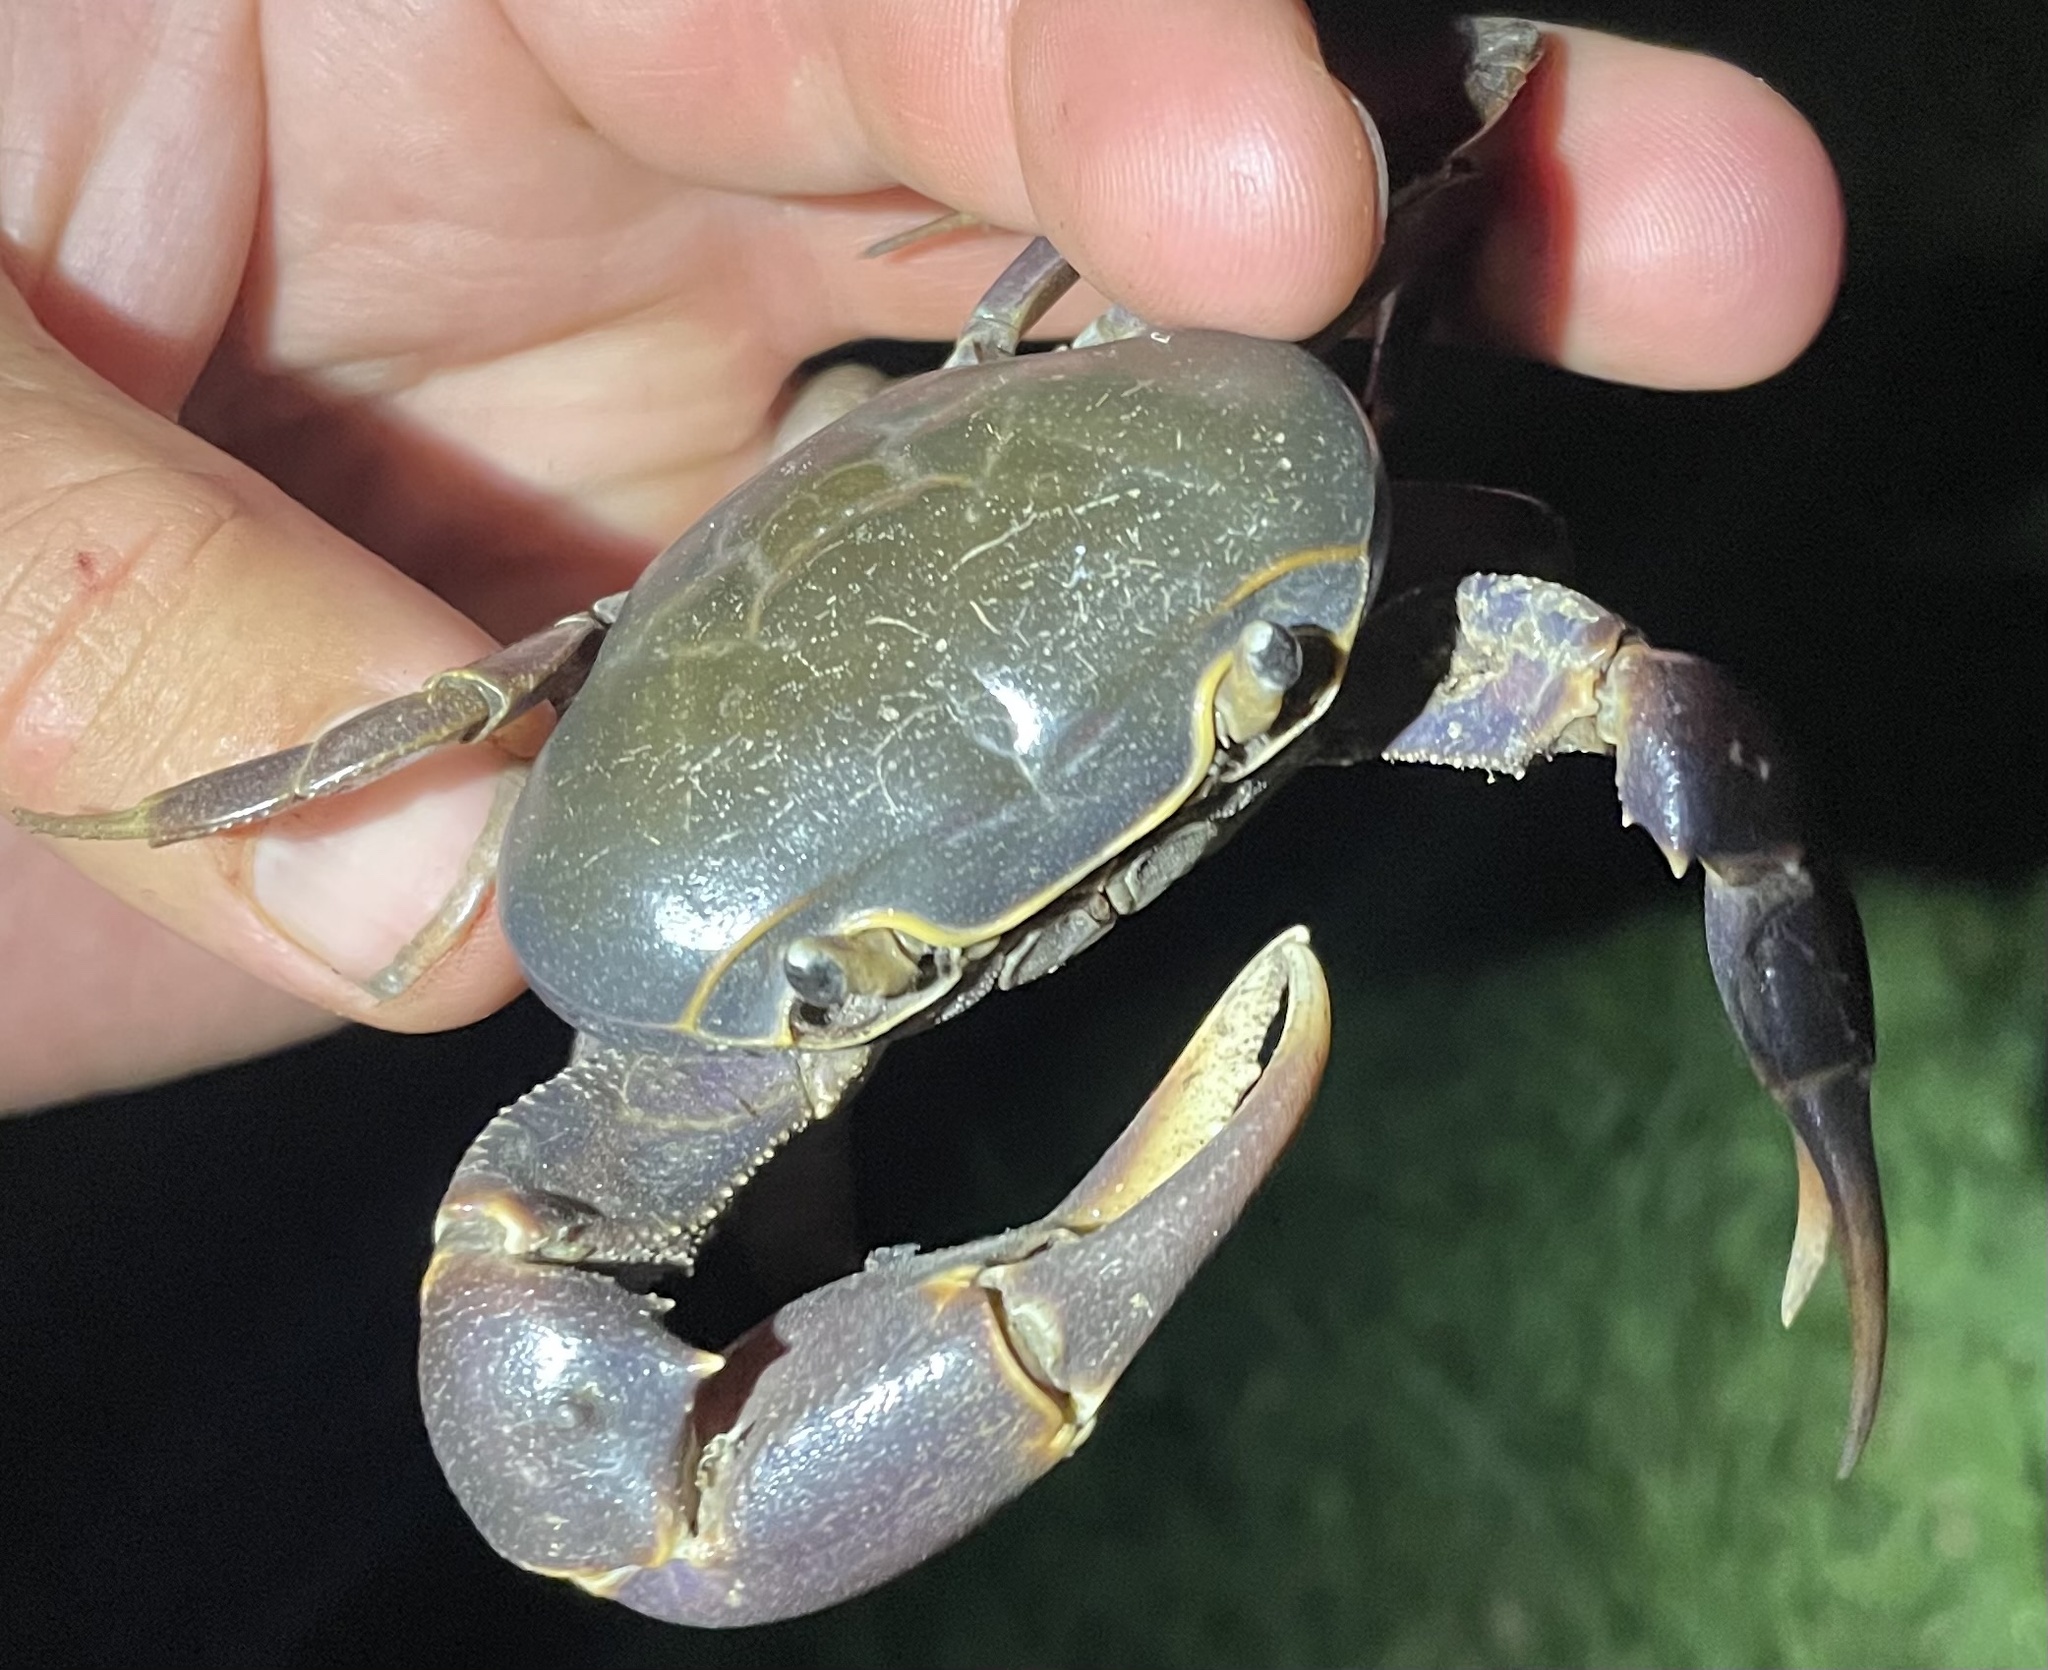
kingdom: Animalia
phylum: Arthropoda
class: Malacostraca
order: Decapoda
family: Potamonautidae
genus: Potamonautes
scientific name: Potamonautes isimangaliso
